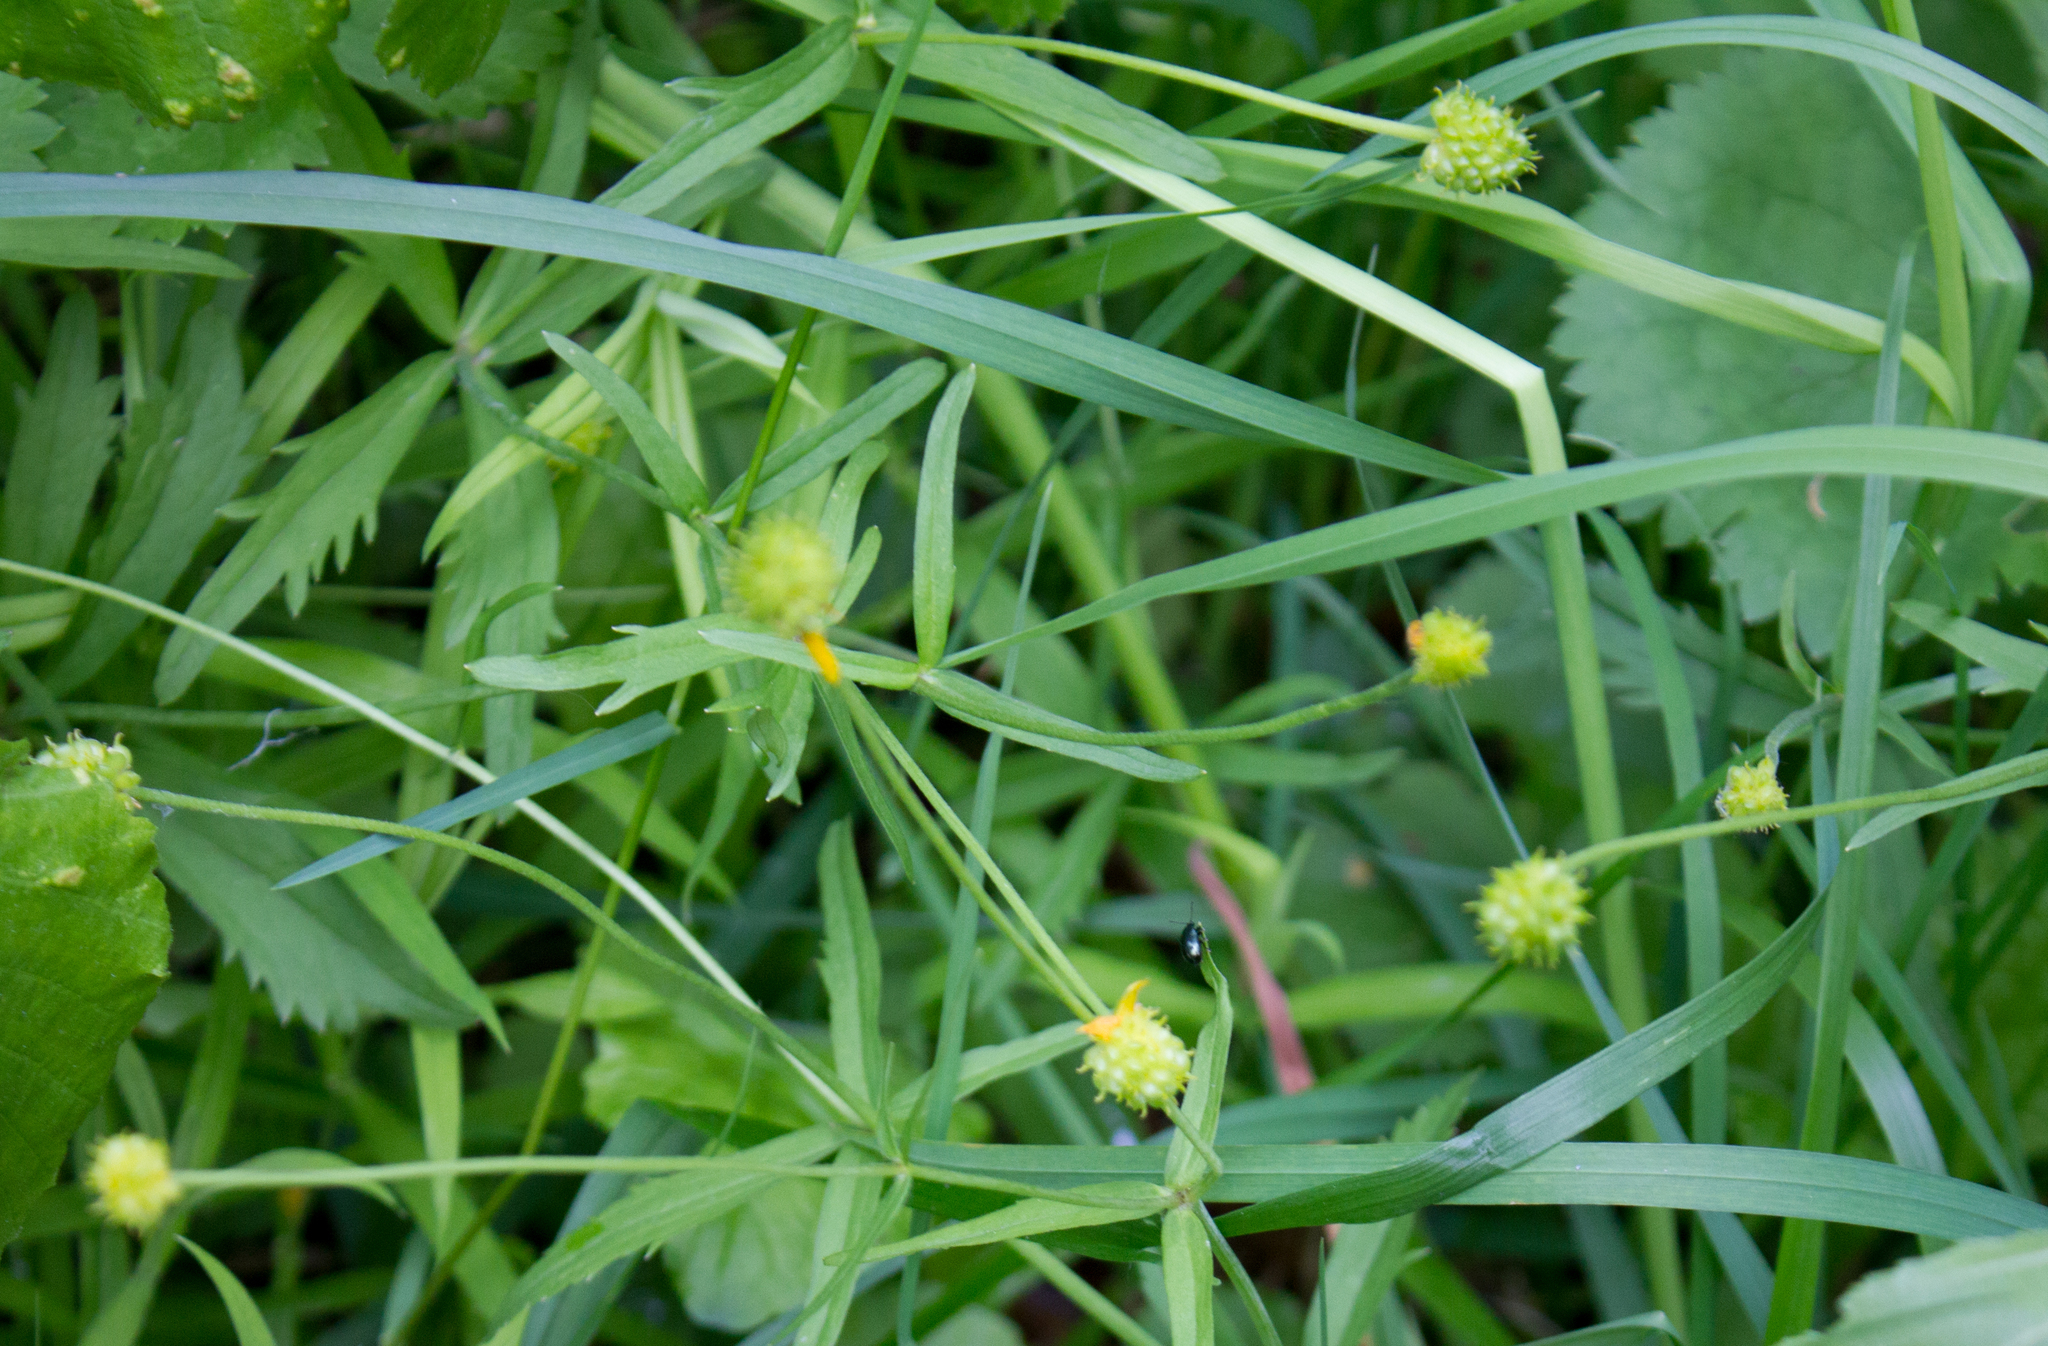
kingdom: Plantae
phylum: Tracheophyta
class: Magnoliopsida
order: Ranunculales
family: Ranunculaceae
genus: Ranunculus
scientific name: Ranunculus cassubicus
